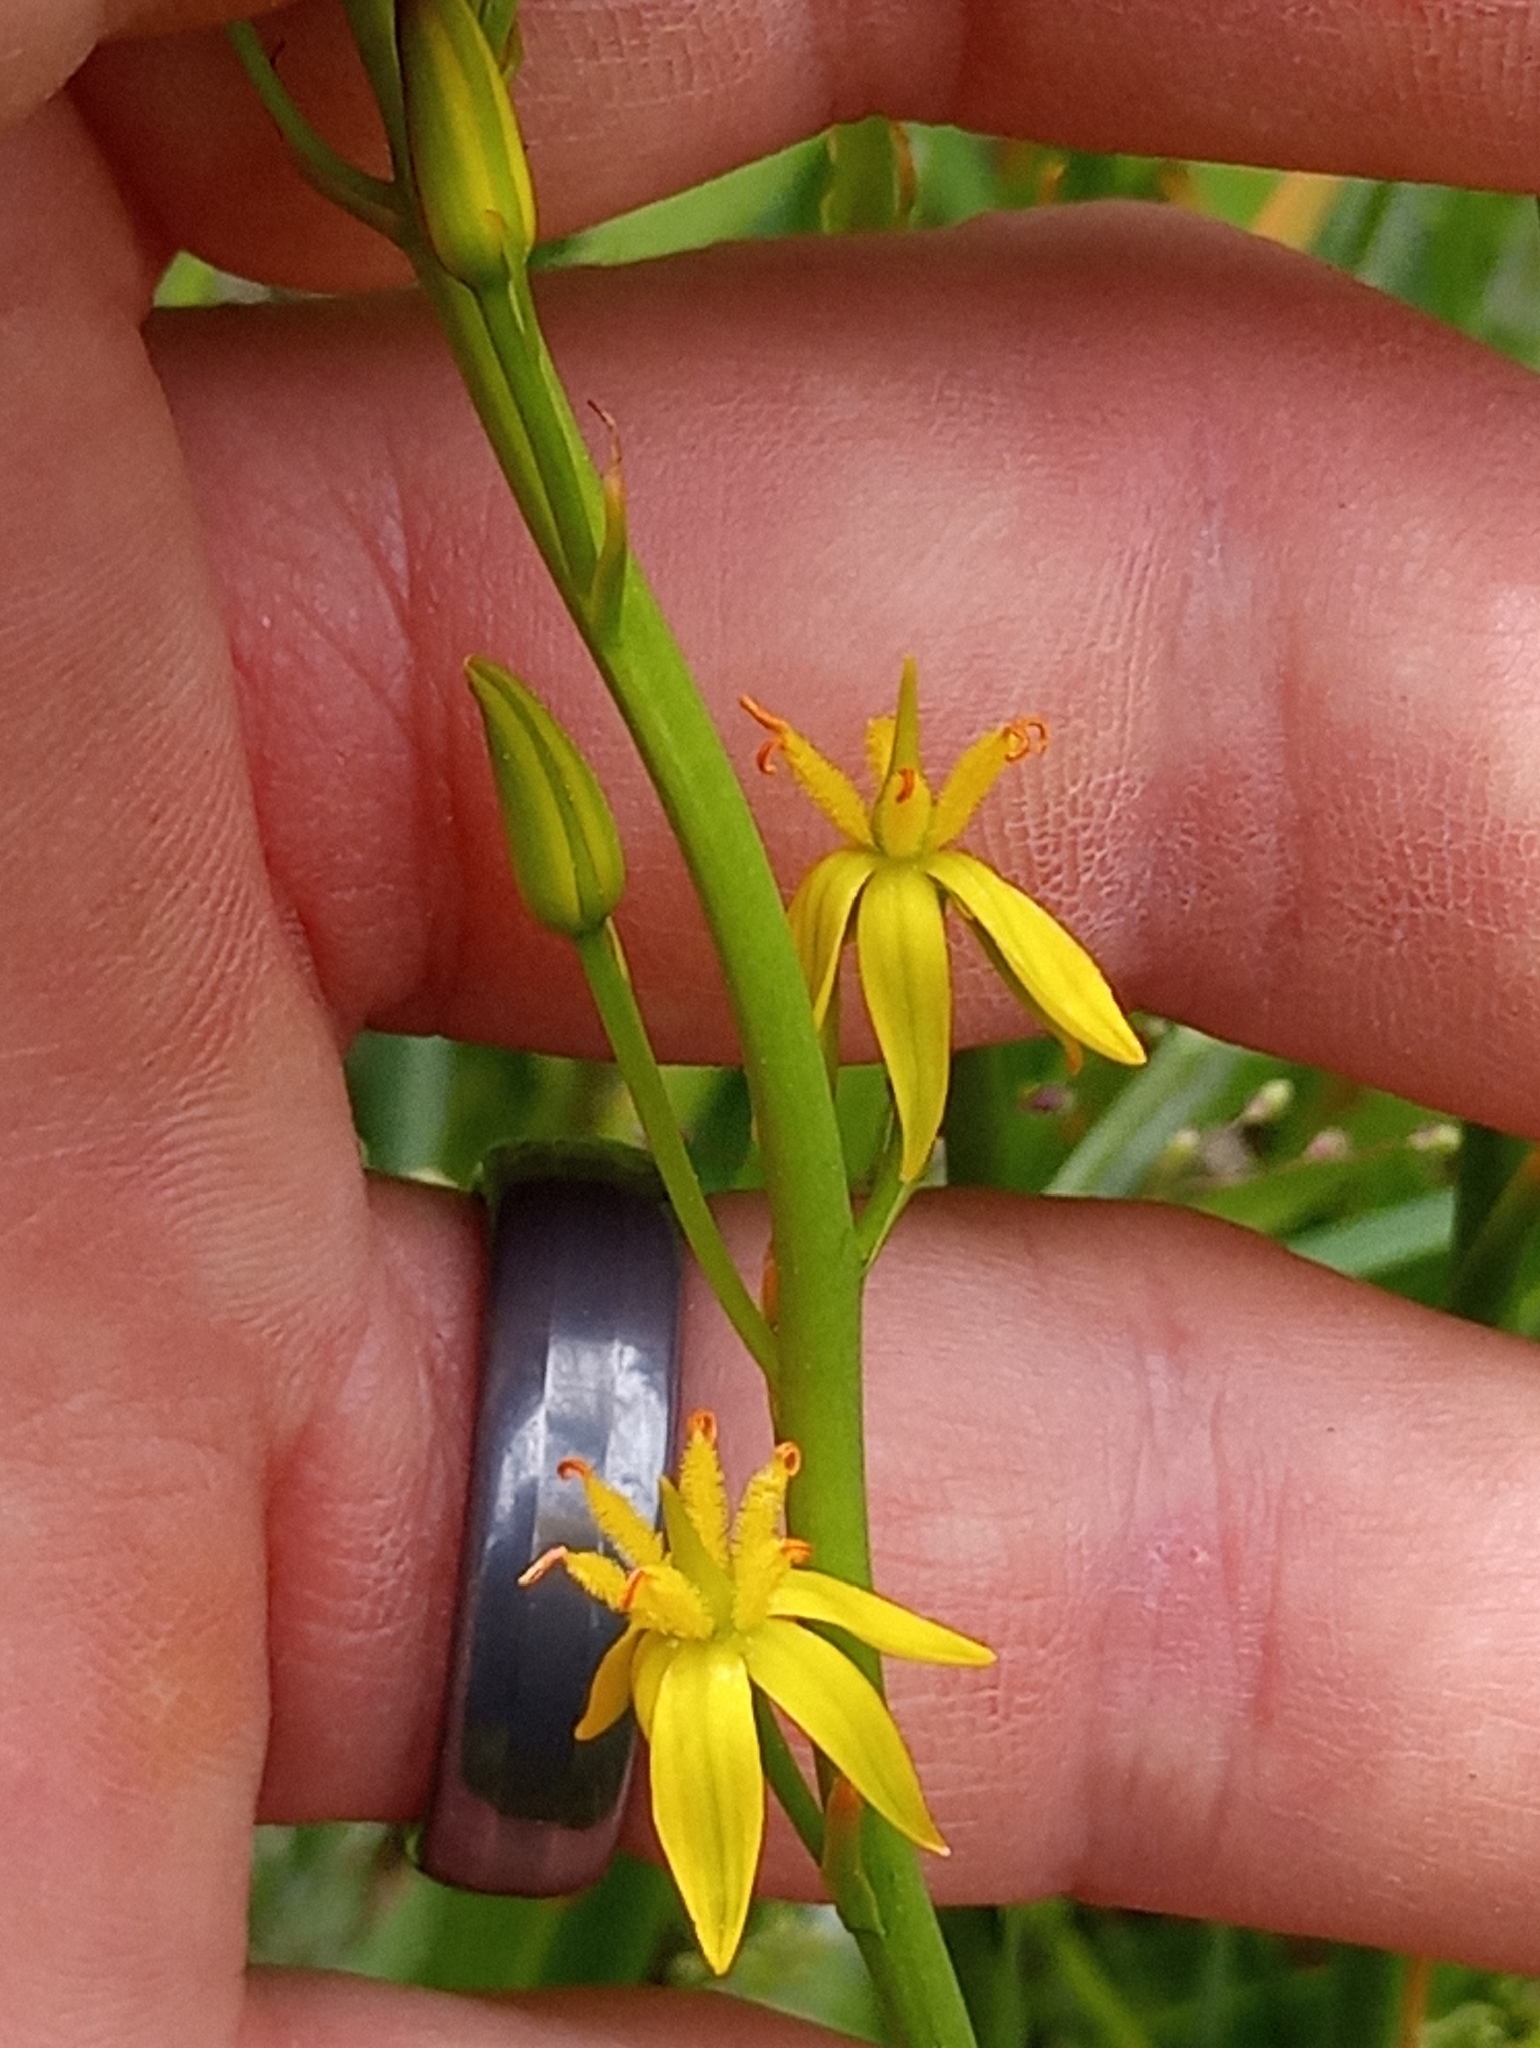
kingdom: Plantae
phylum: Tracheophyta
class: Liliopsida
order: Dioscoreales
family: Nartheciaceae
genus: Narthecium
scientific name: Narthecium californicum
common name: California bog-asphodel
